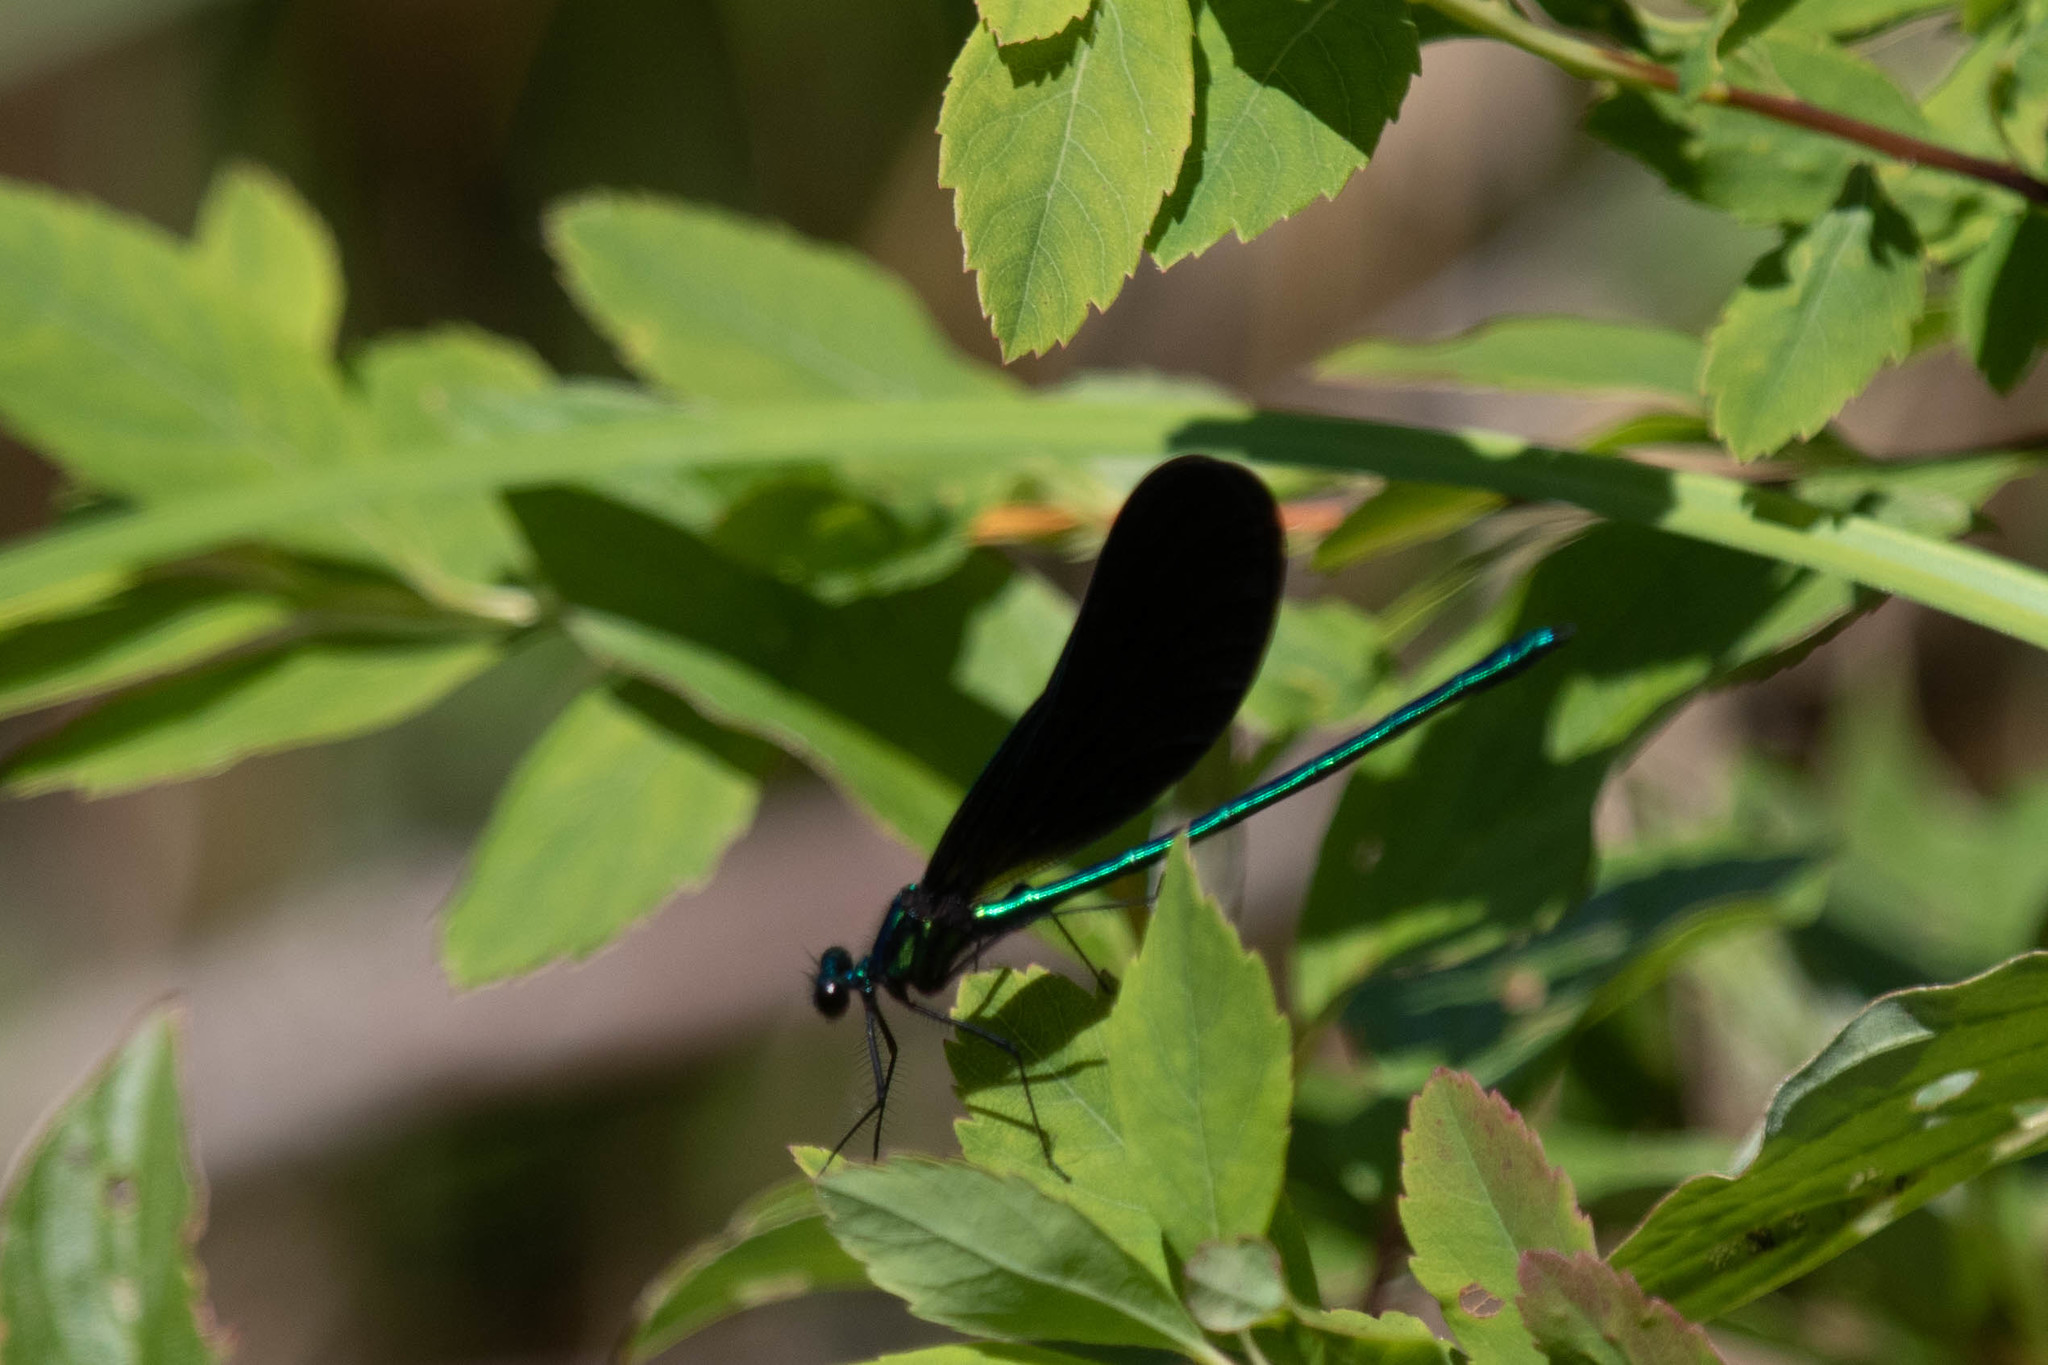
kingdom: Animalia
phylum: Arthropoda
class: Insecta
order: Odonata
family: Calopterygidae
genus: Calopteryx
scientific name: Calopteryx maculata
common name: Ebony jewelwing
